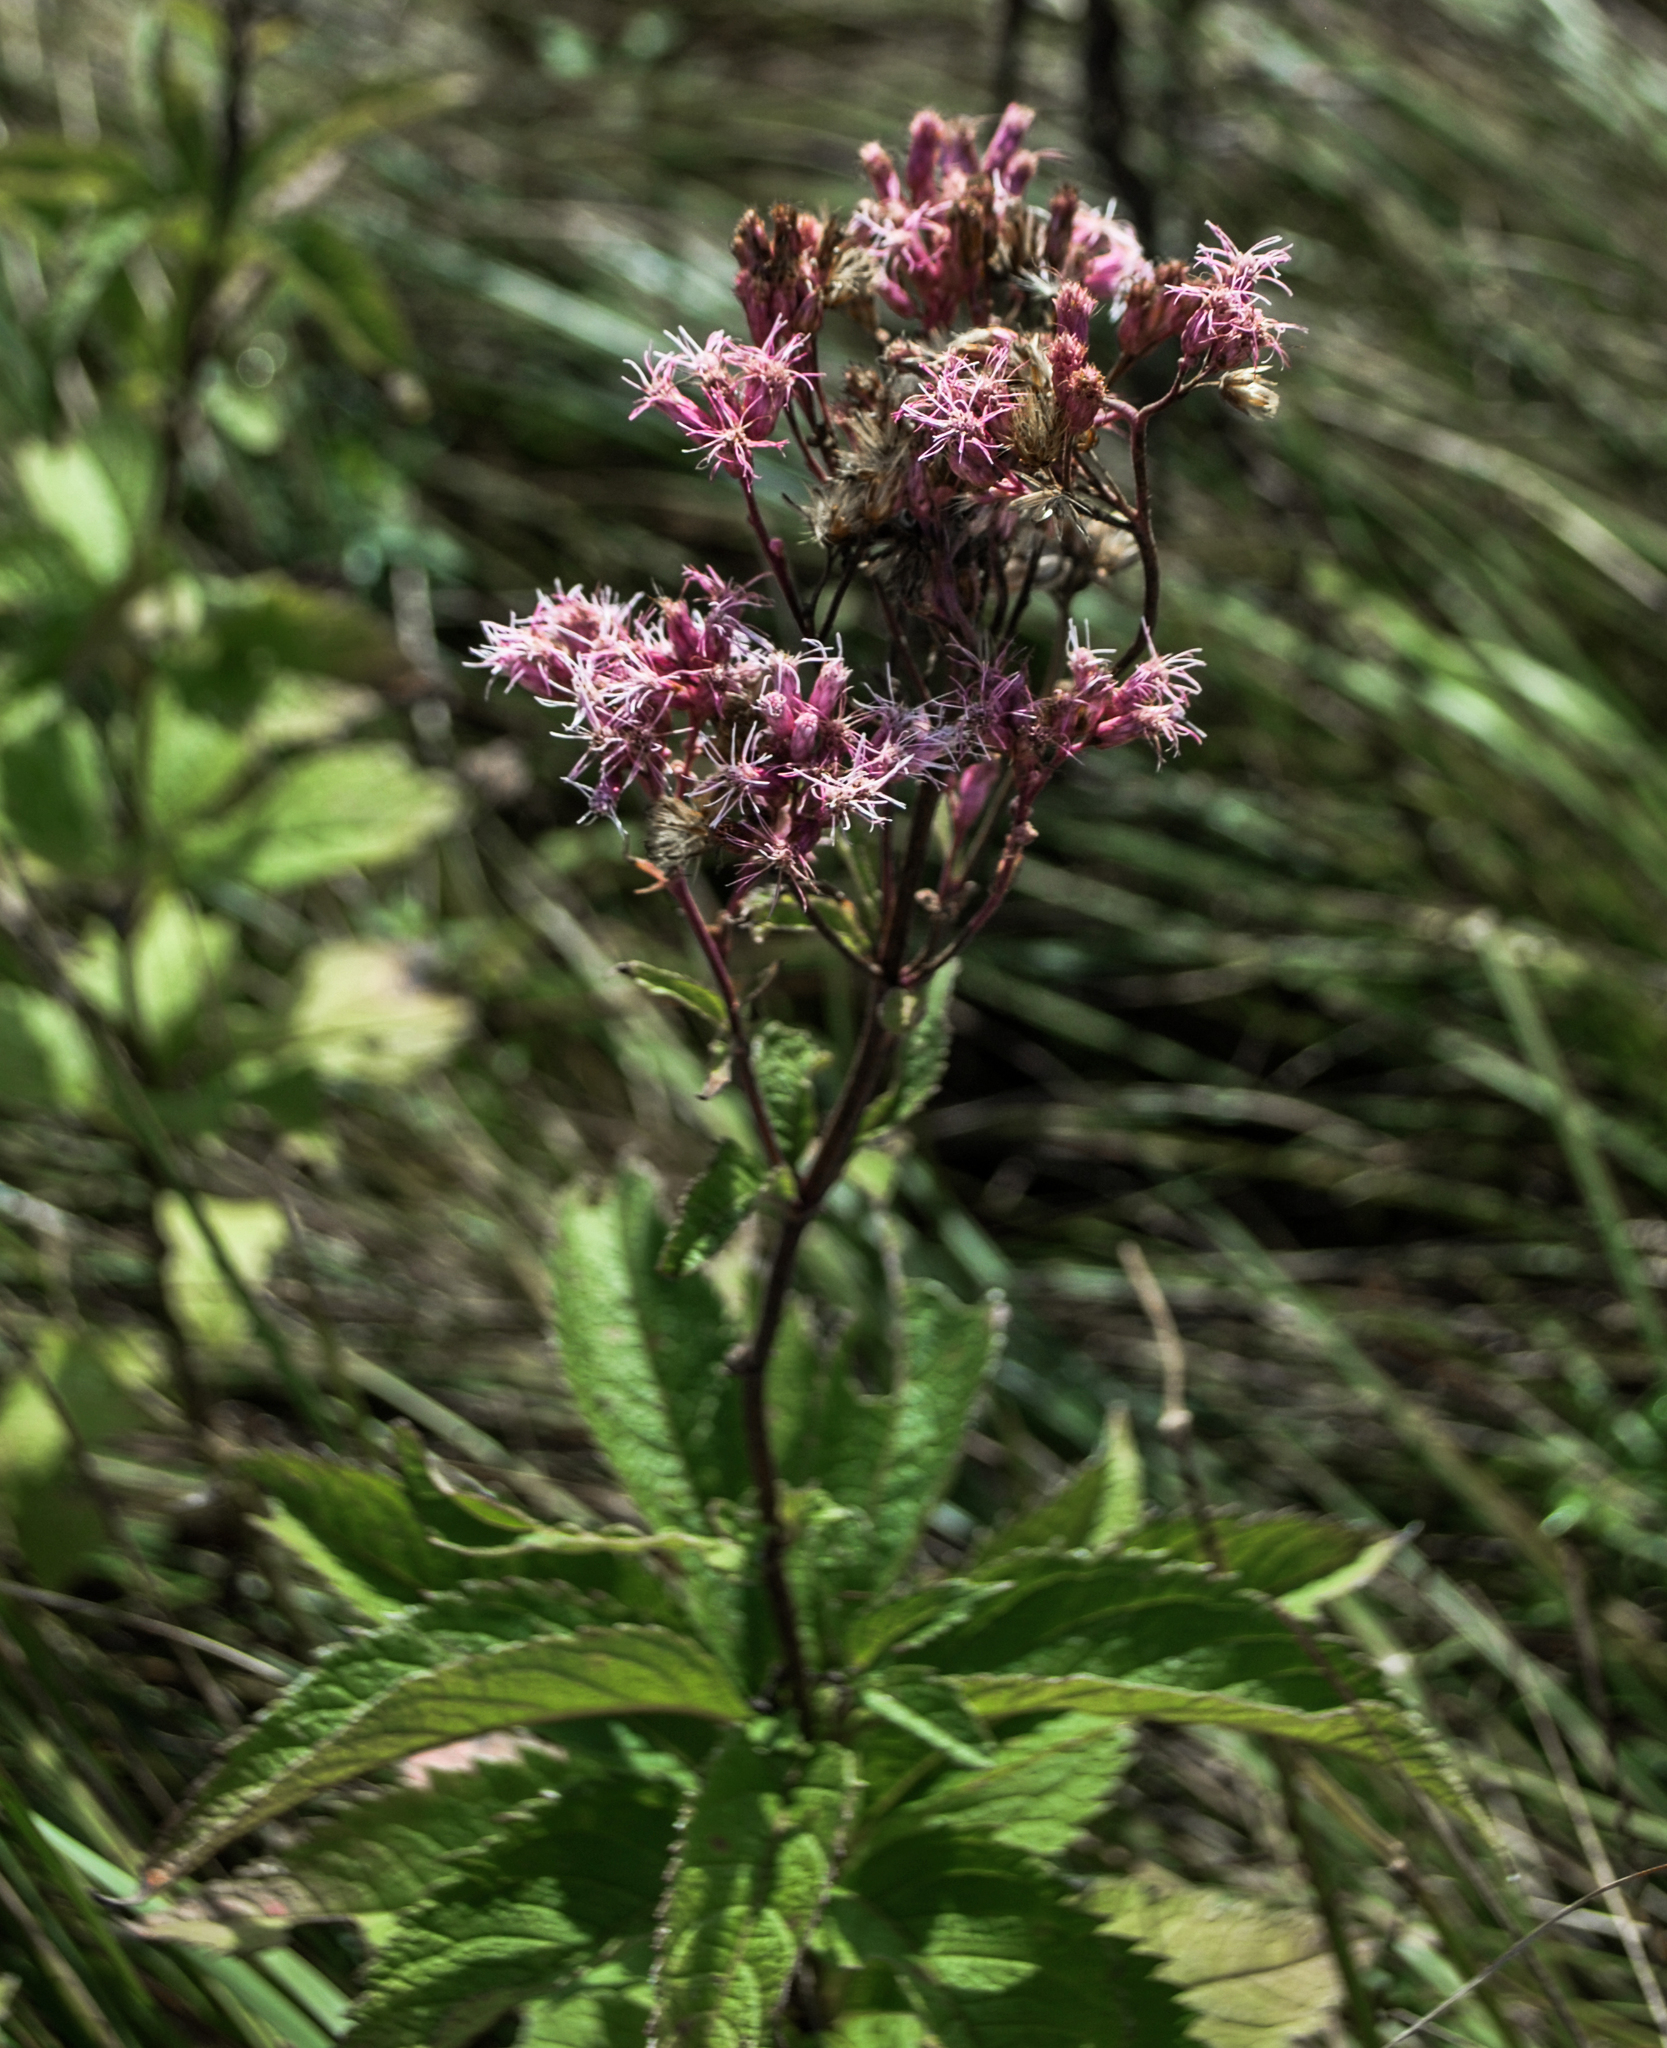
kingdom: Plantae
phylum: Tracheophyta
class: Magnoliopsida
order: Asterales
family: Asteraceae
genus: Eutrochium
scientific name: Eutrochium maculatum
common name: Spotted joe pye weed
